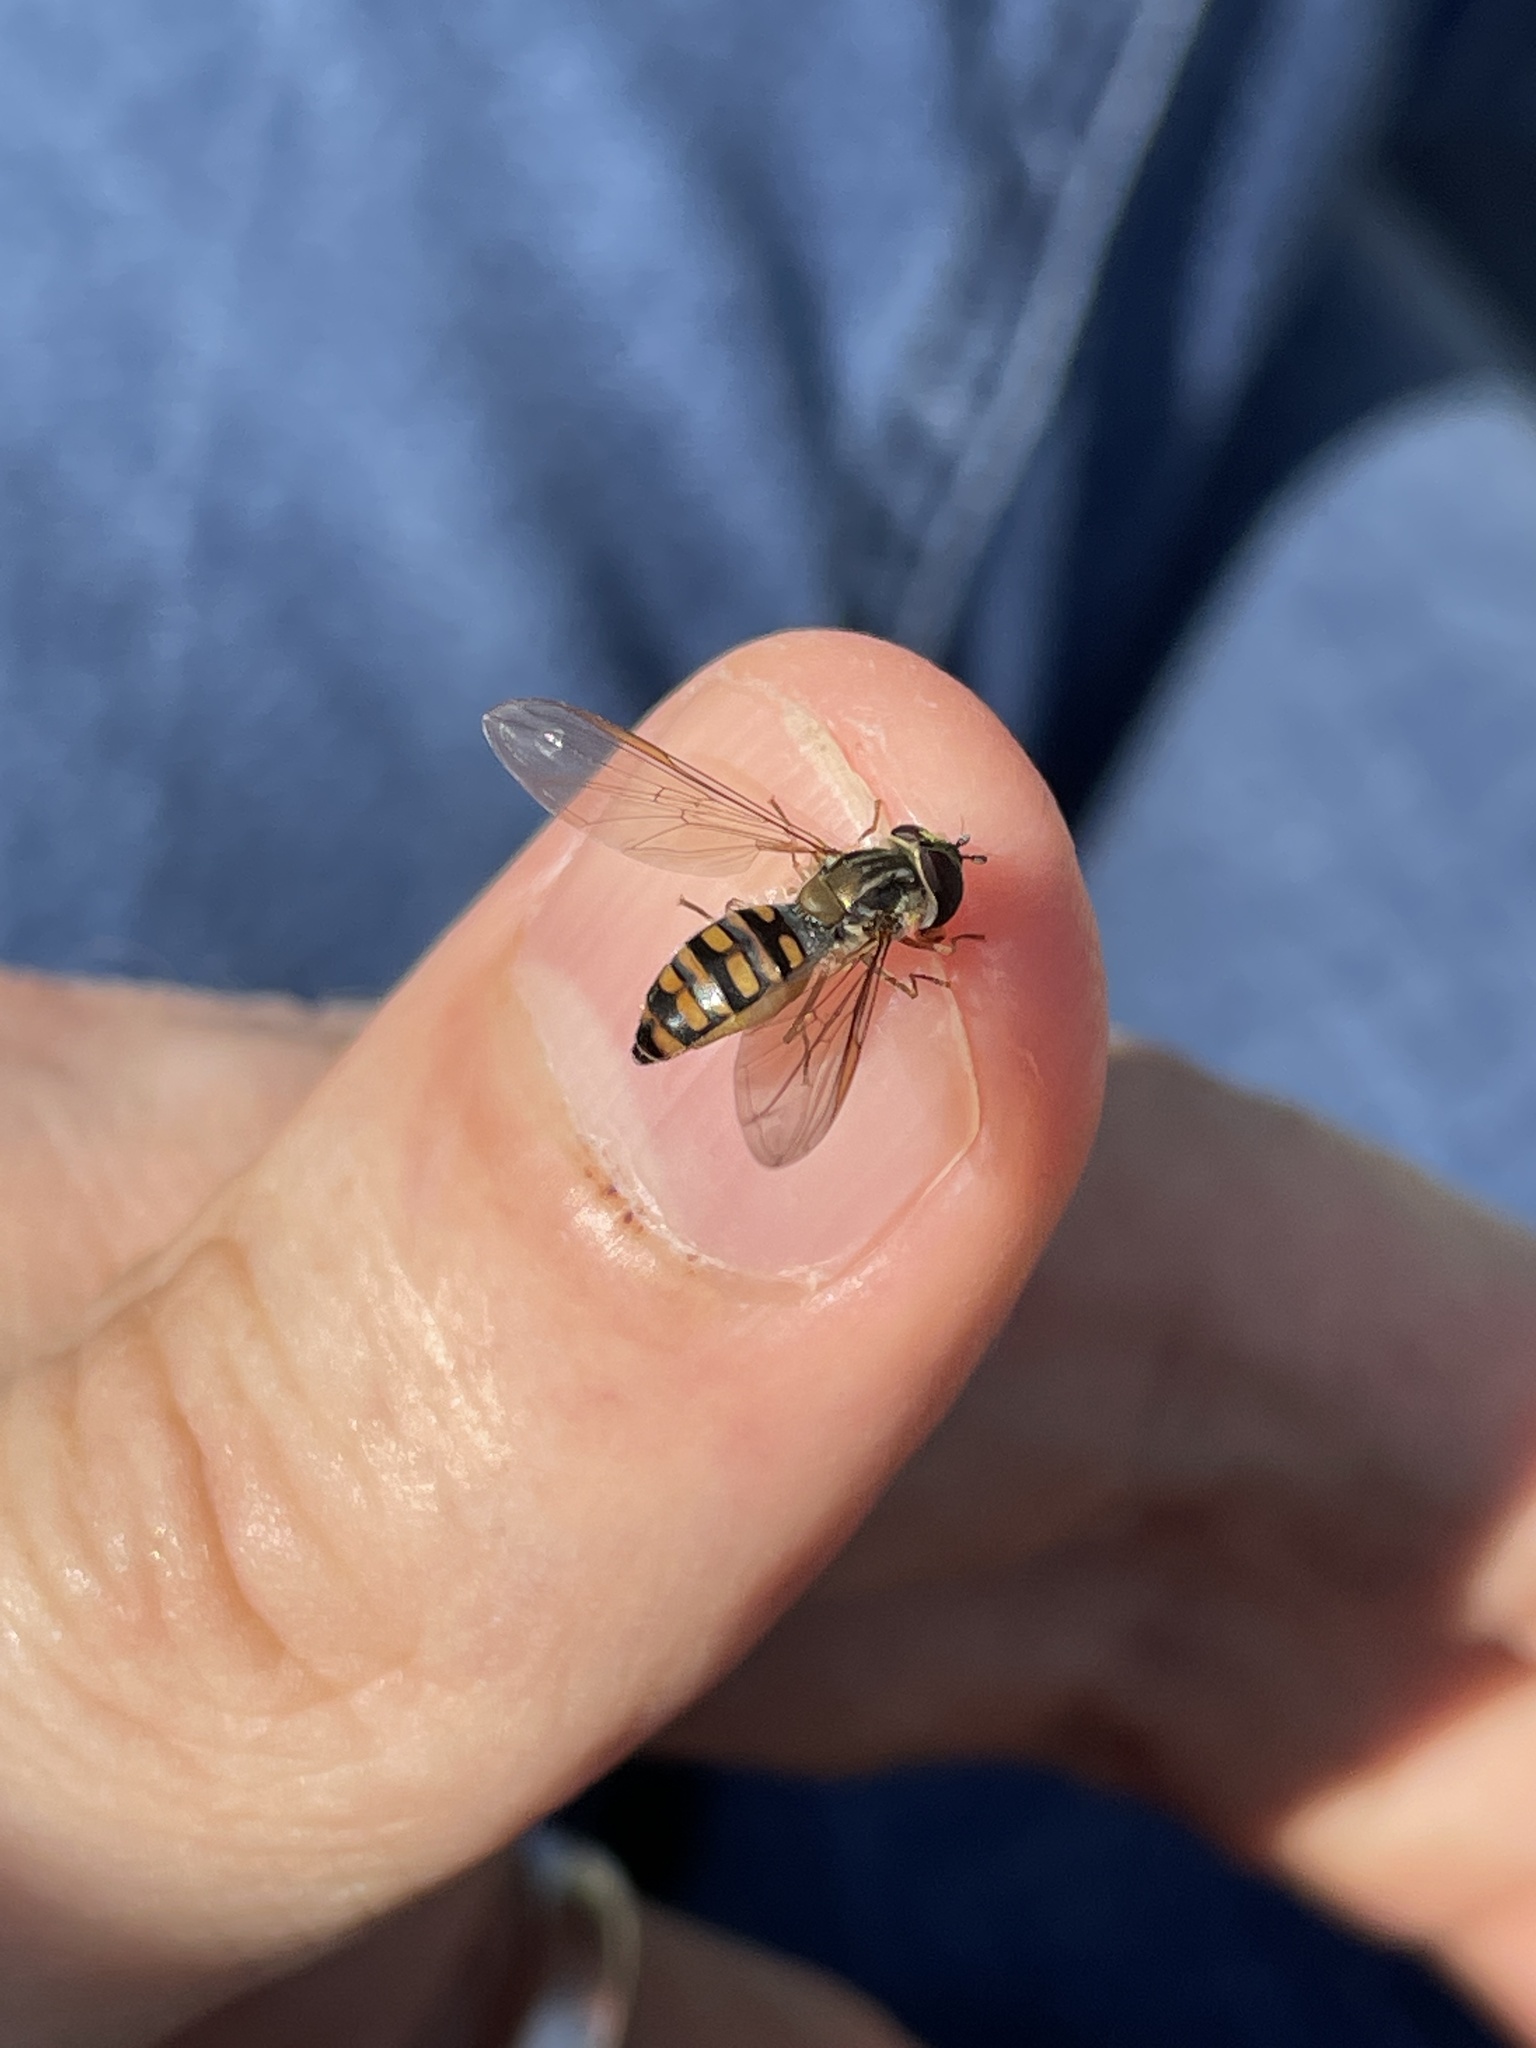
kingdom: Animalia
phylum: Arthropoda
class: Insecta
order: Diptera
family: Syrphidae
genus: Episyrphus
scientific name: Episyrphus balteatus
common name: Marmalade hoverfly
